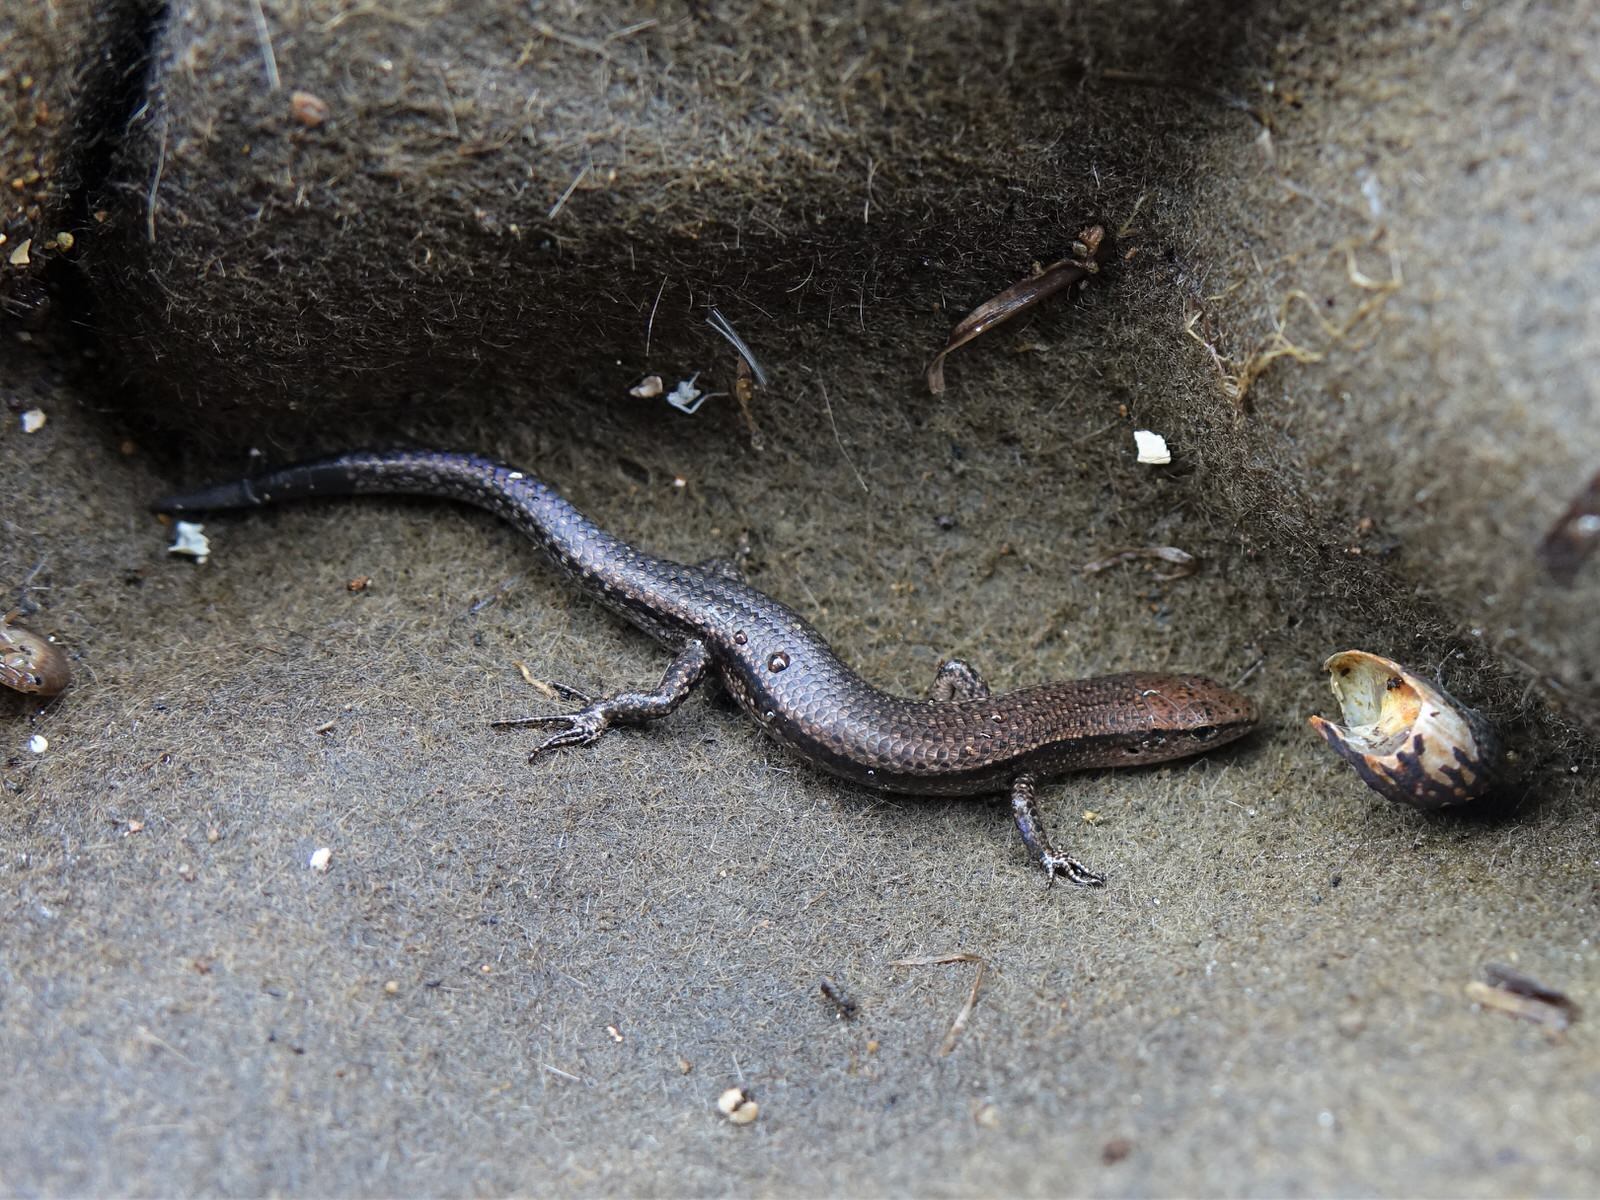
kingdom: Animalia
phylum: Chordata
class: Squamata
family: Scincidae
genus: Lampropholis
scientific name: Lampropholis delicata
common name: Plague skink
